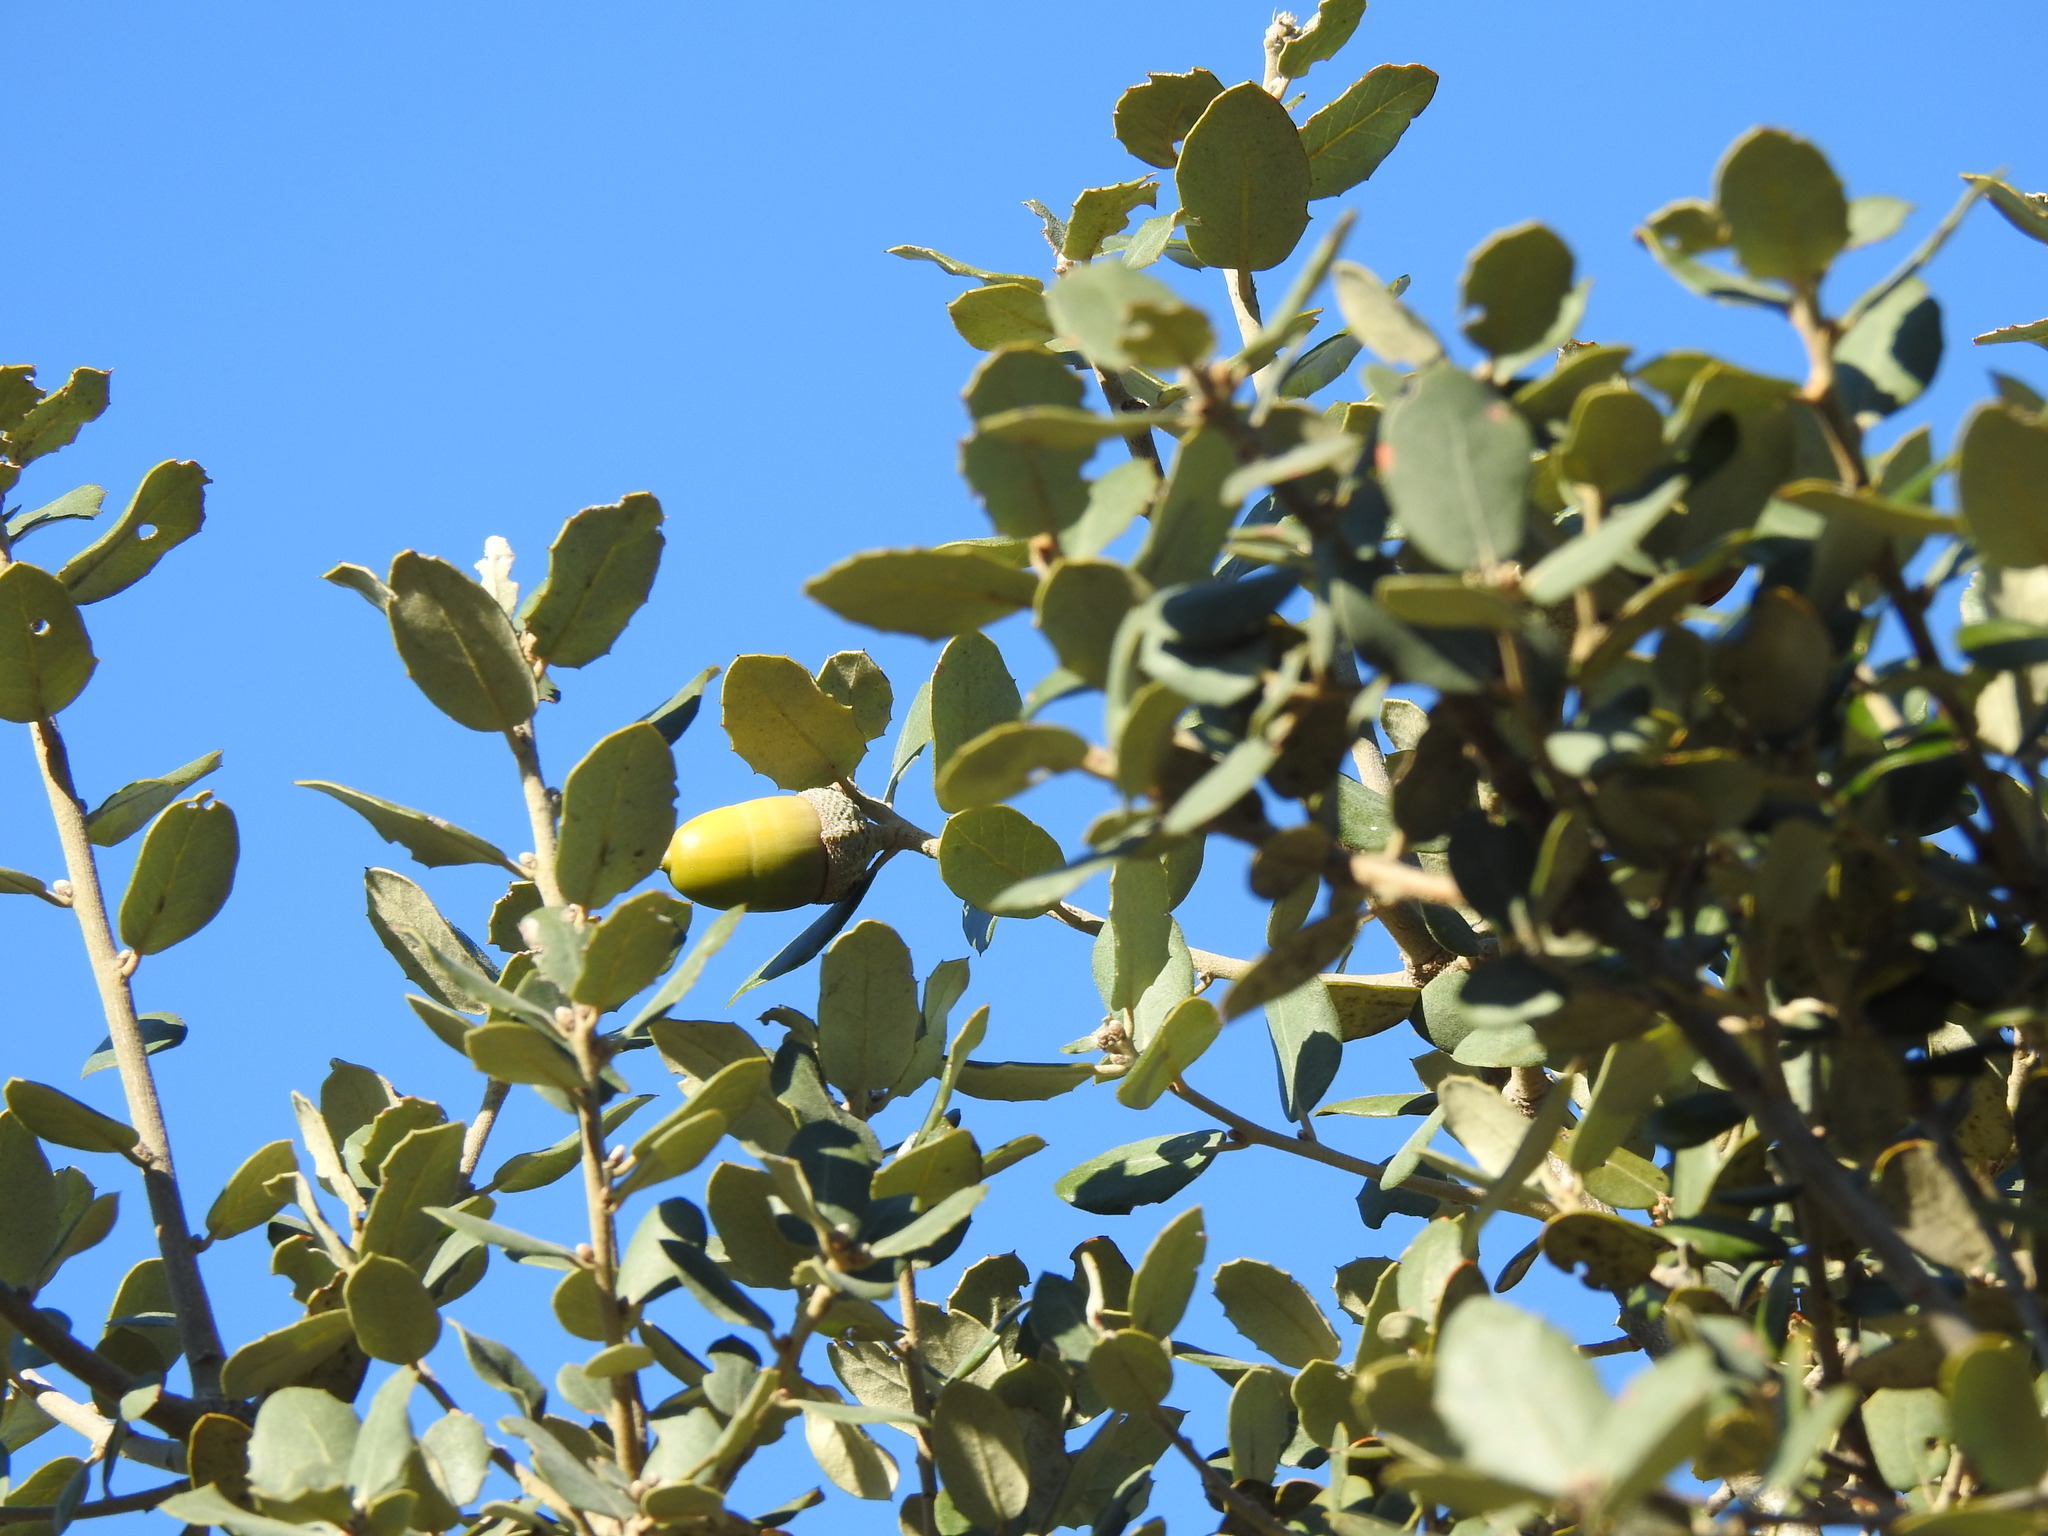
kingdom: Plantae
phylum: Tracheophyta
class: Magnoliopsida
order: Fagales
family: Fagaceae
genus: Quercus
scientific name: Quercus rotundifolia
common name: Holm oak
